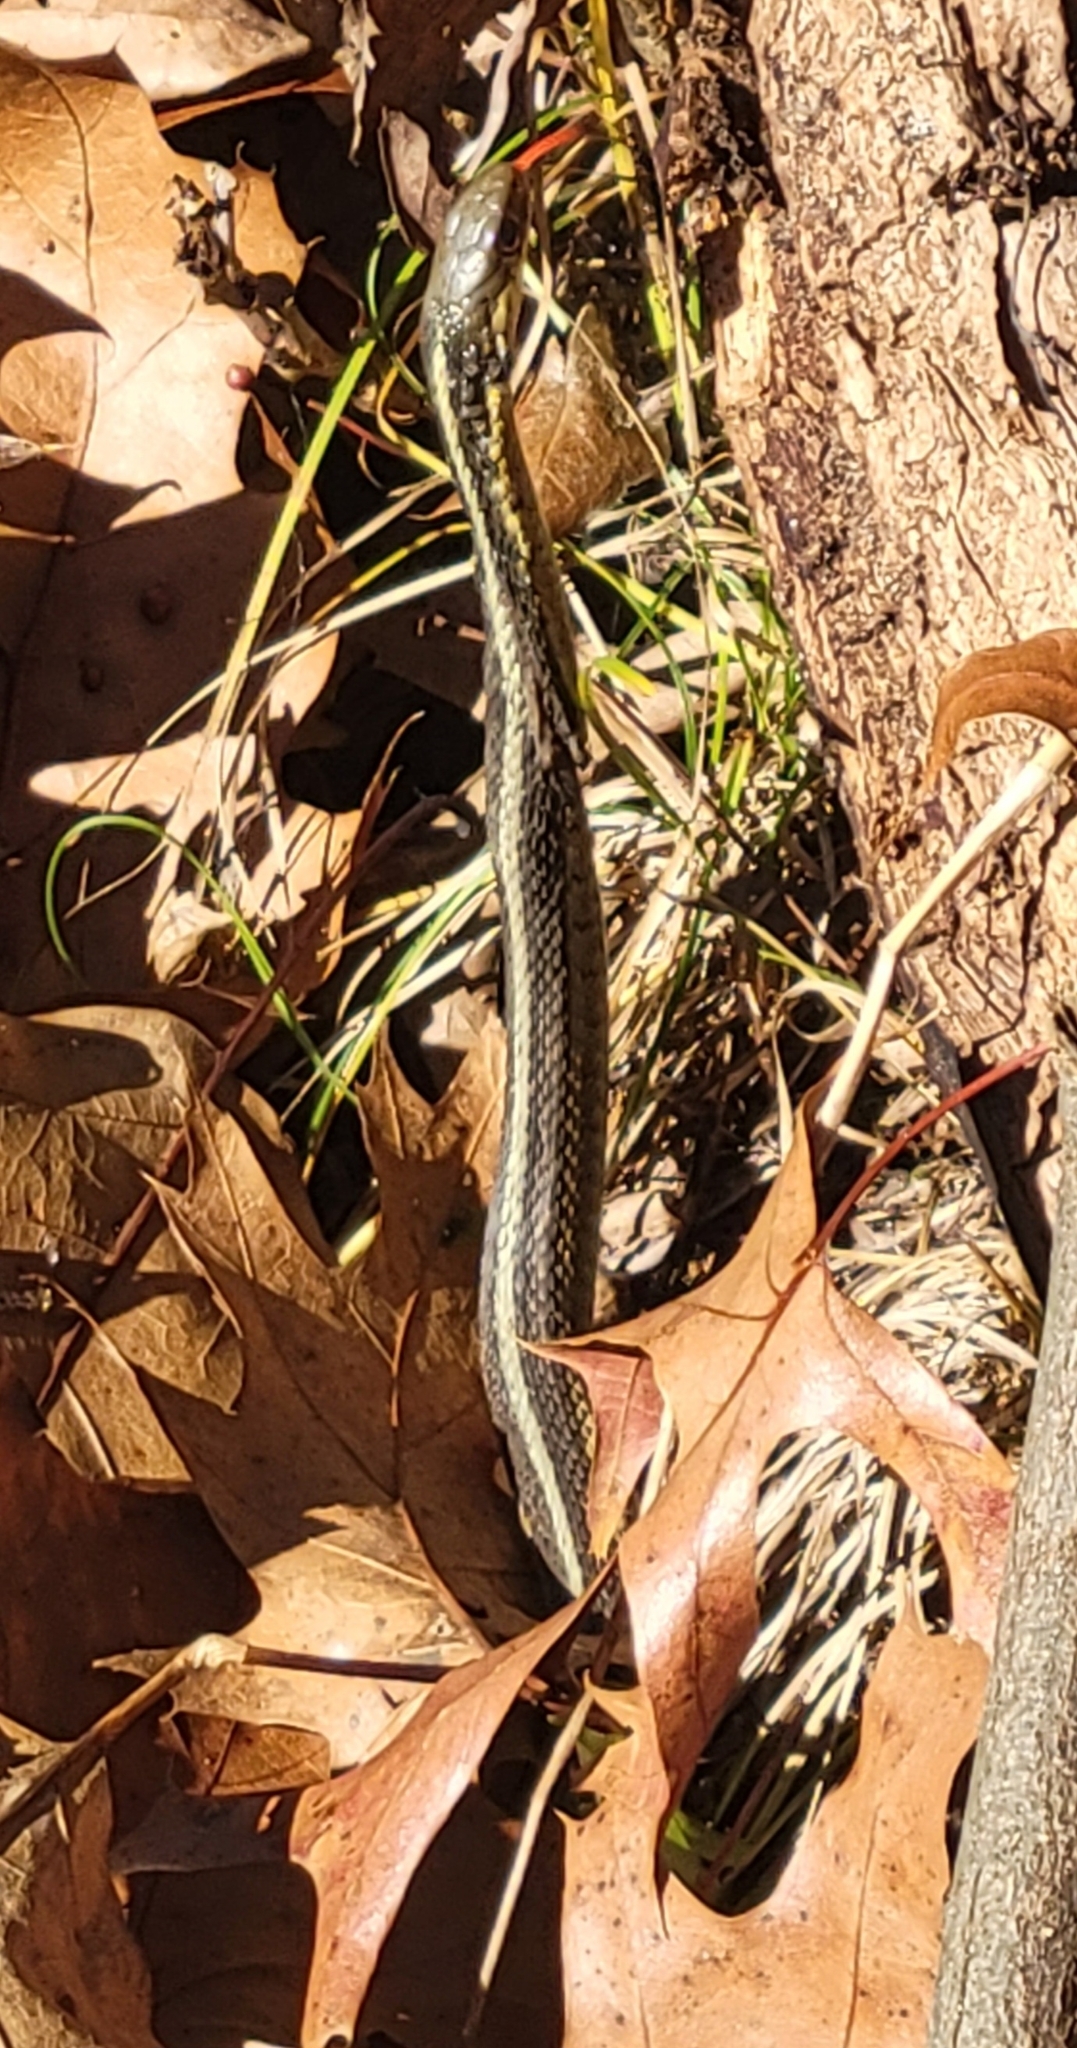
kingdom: Animalia
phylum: Chordata
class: Squamata
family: Colubridae
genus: Thamnophis
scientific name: Thamnophis sirtalis
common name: Common garter snake
